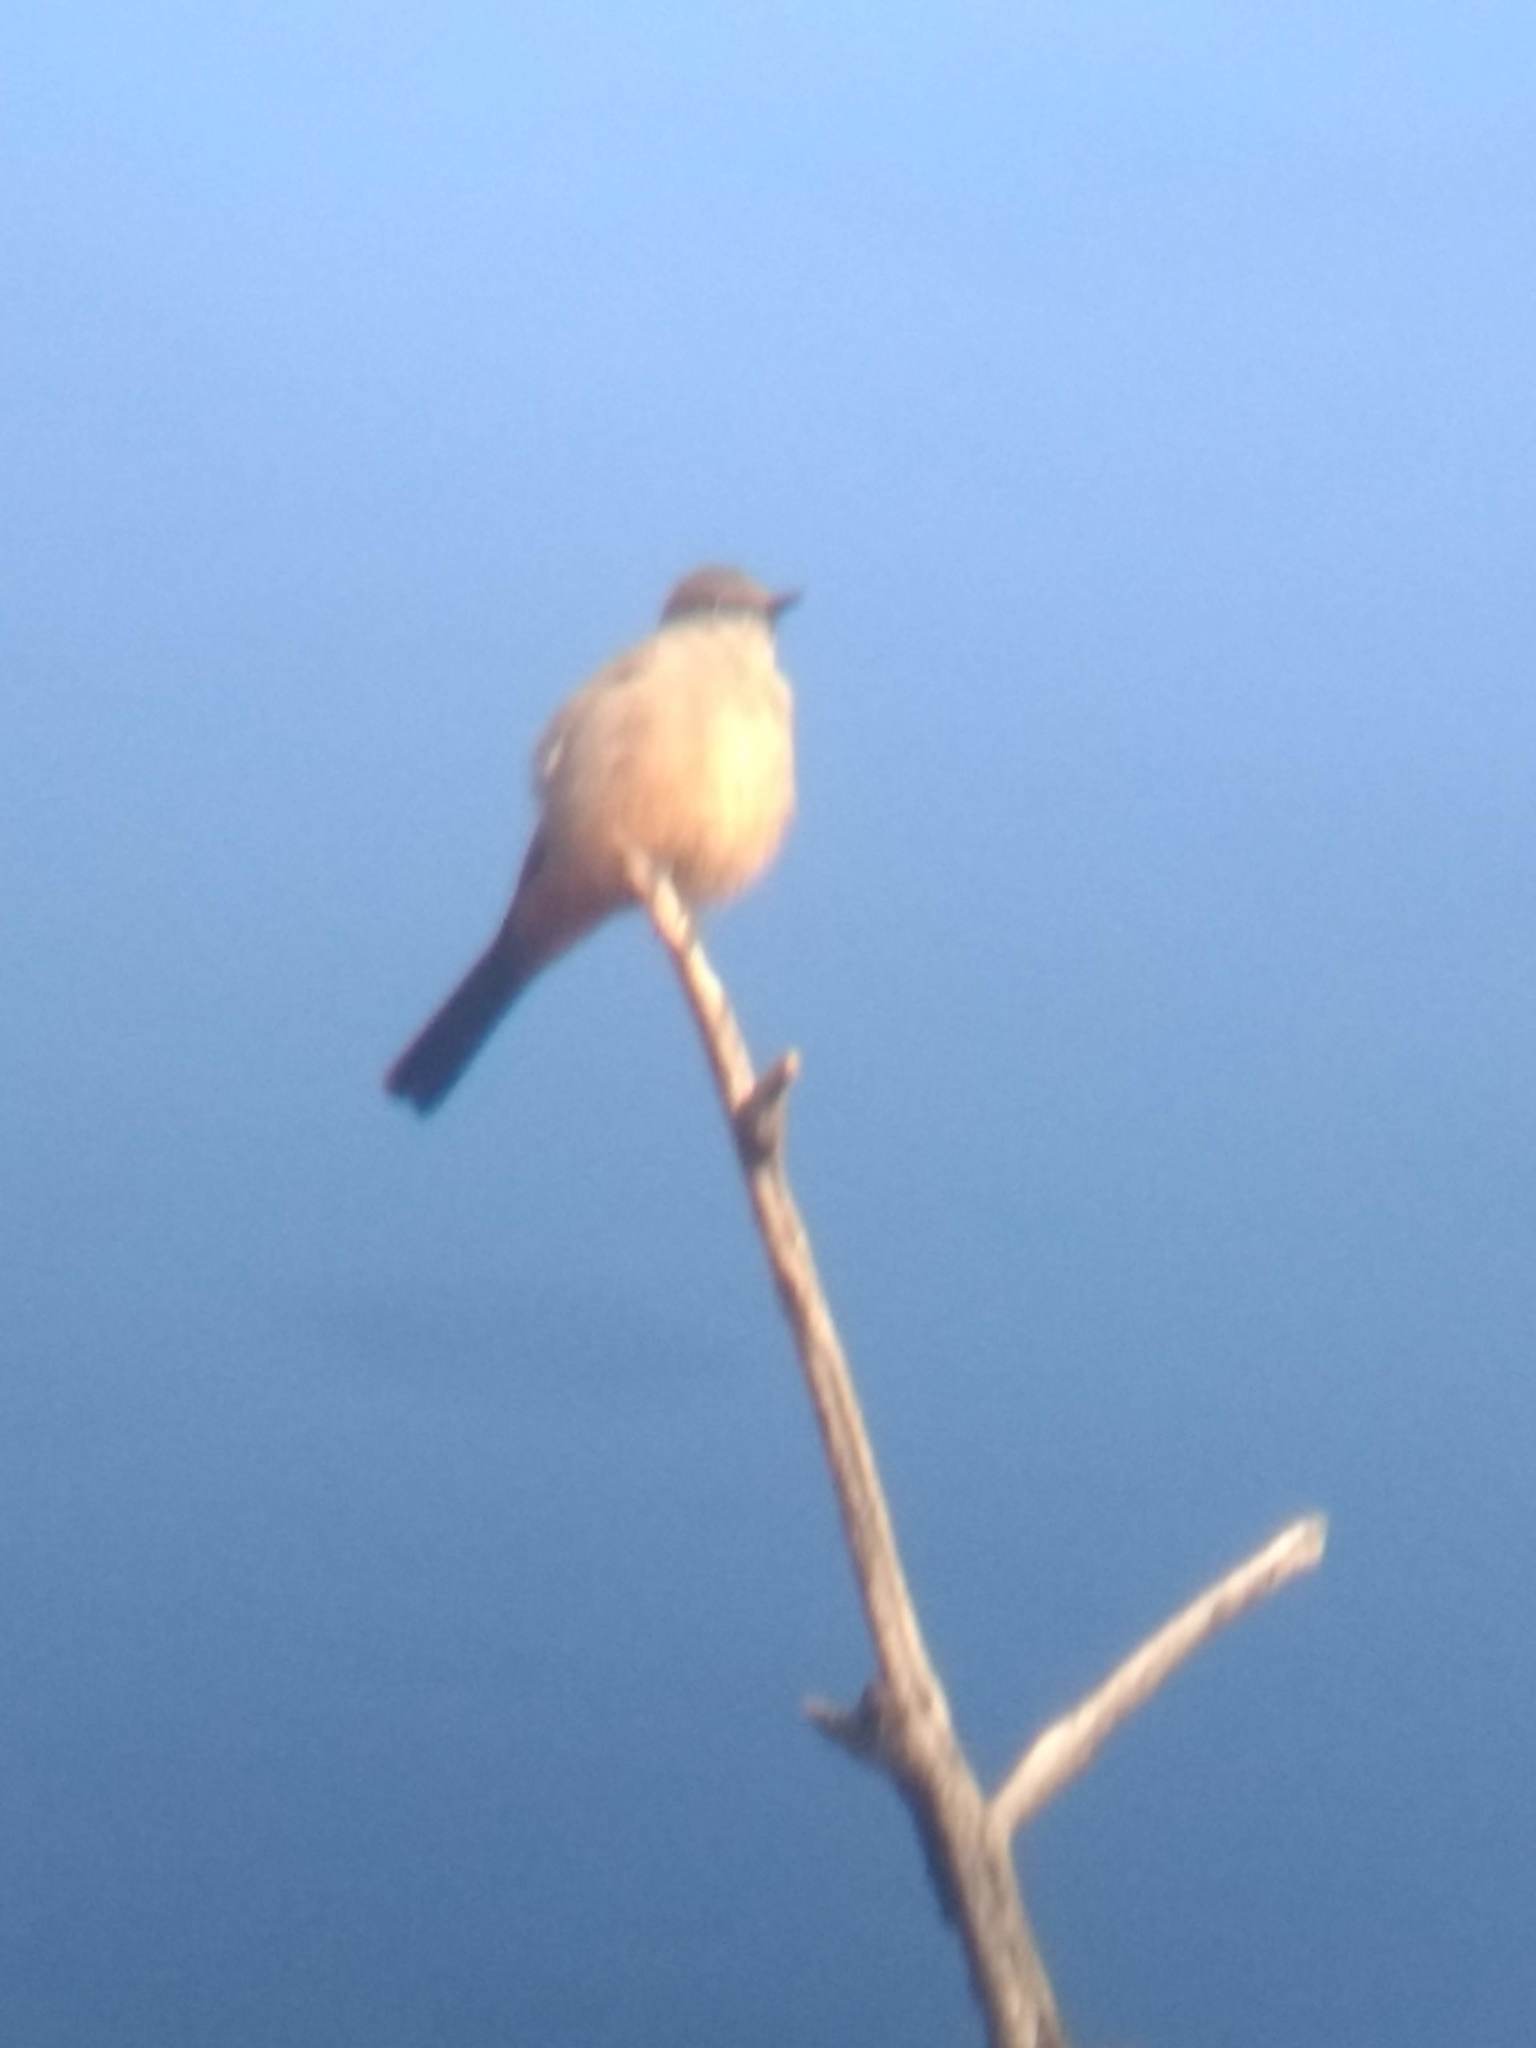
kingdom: Animalia
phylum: Chordata
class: Aves
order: Passeriformes
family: Tyrannidae
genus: Sayornis
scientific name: Sayornis saya
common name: Say's phoebe
